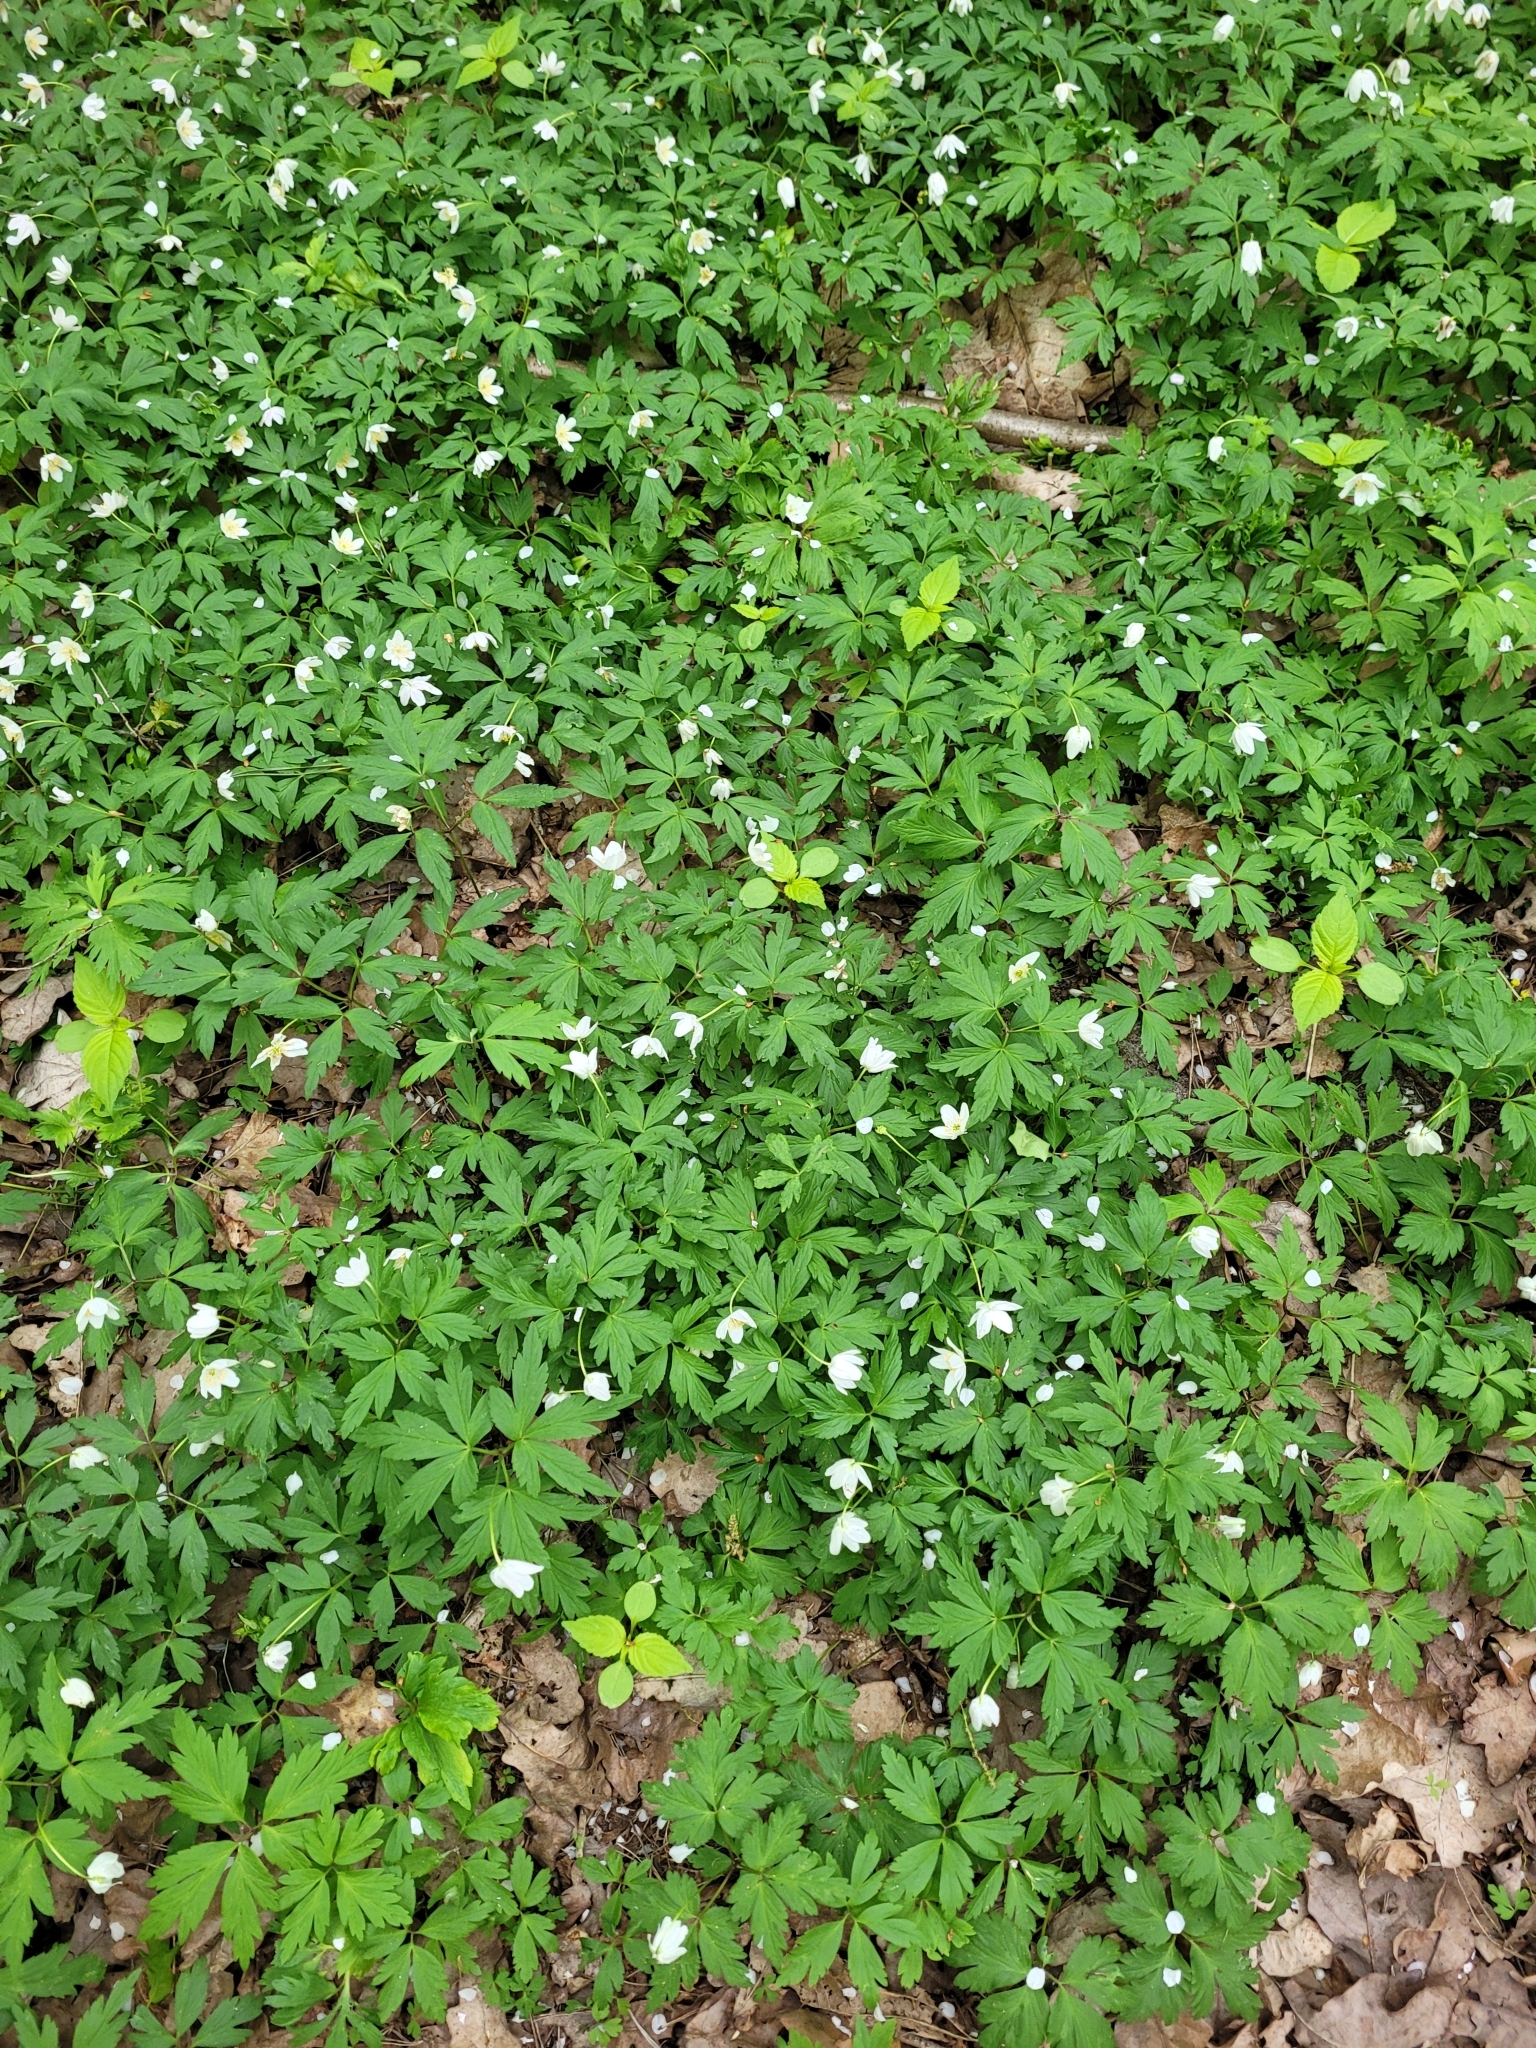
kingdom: Plantae
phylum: Tracheophyta
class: Magnoliopsida
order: Ranunculales
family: Ranunculaceae
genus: Anemone
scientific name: Anemone nemorosa
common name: Wood anemone
